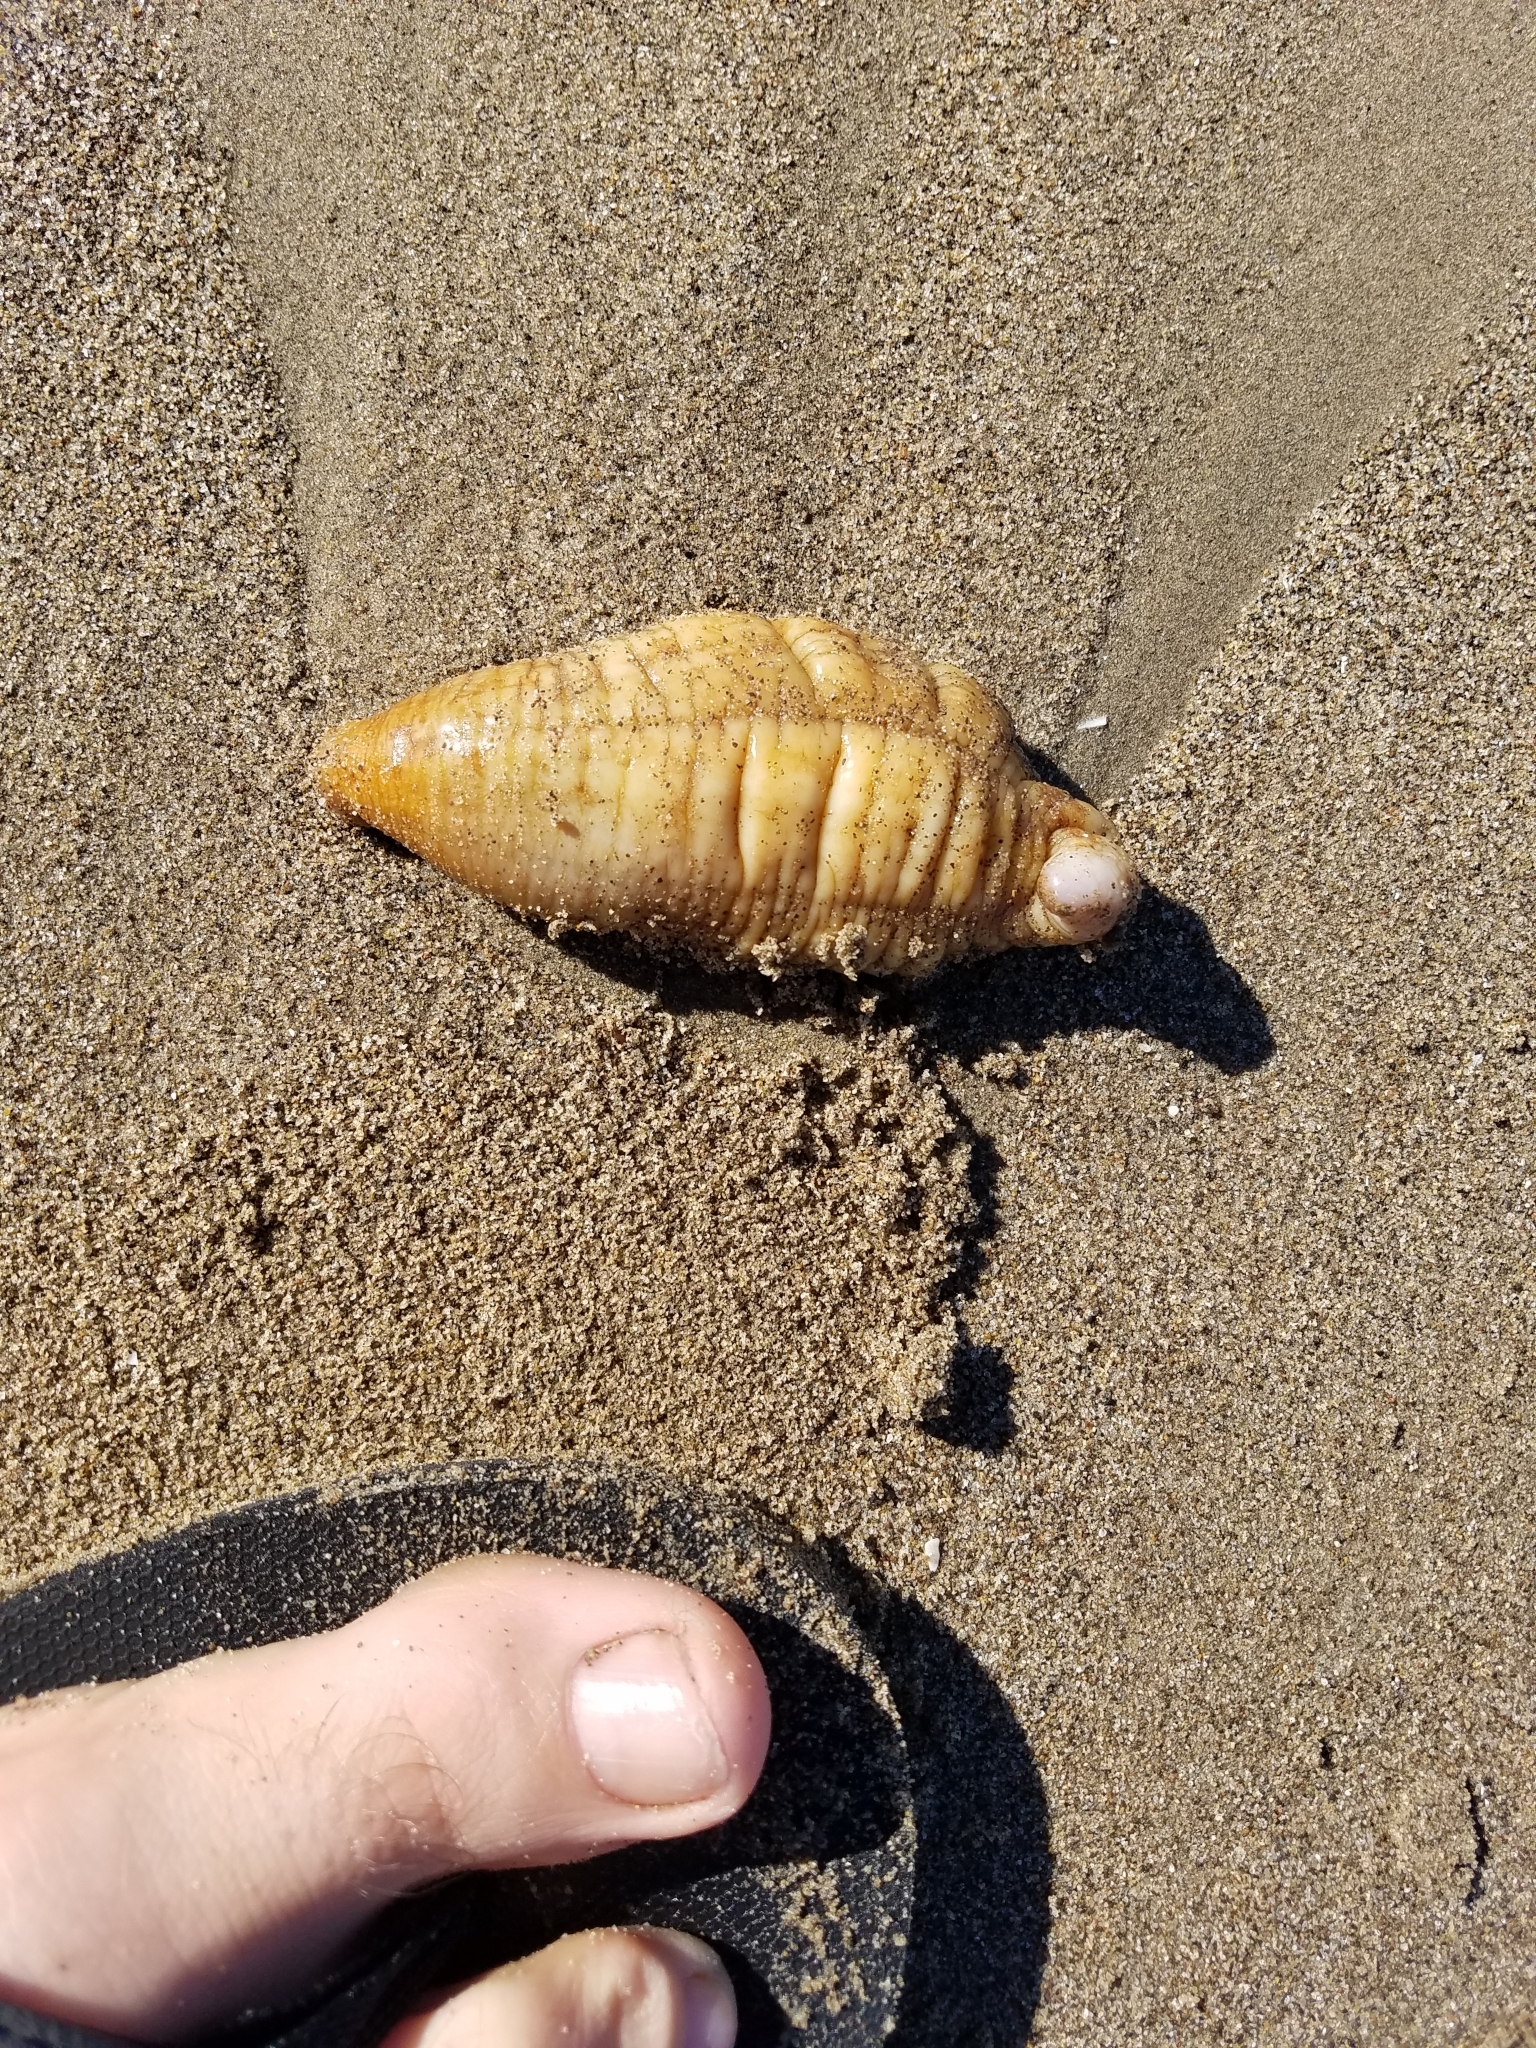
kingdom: Animalia
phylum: Echinodermata
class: Holothuroidea
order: Molpadida
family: Caudinidae
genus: Caudina
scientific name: Caudina arenicola
